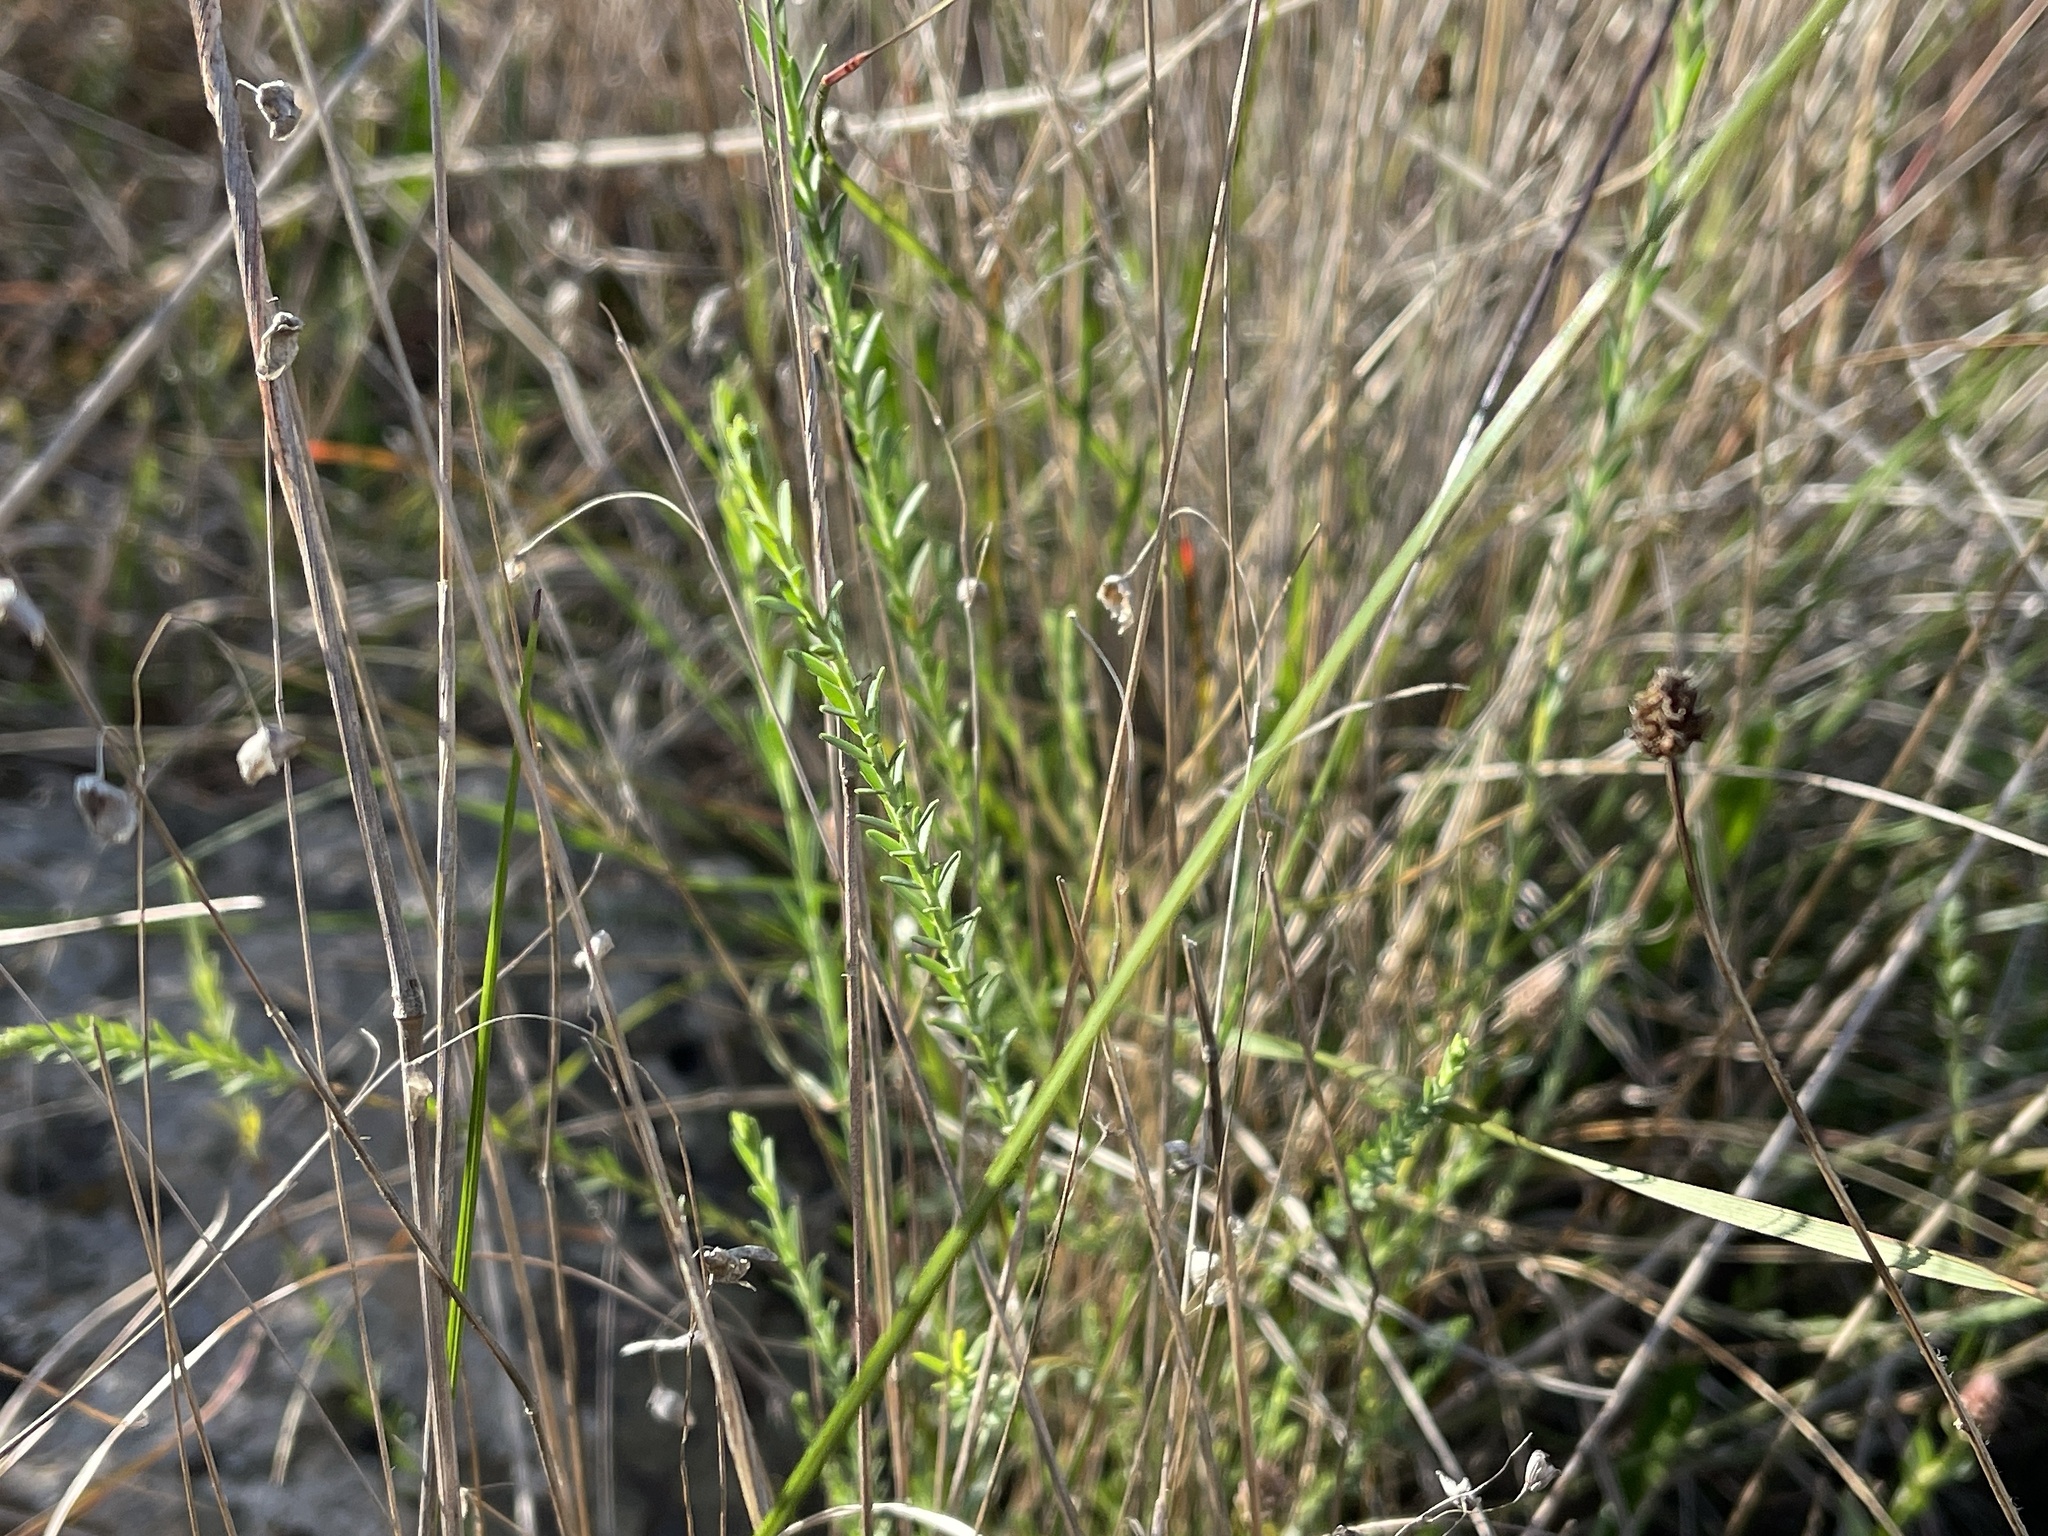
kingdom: Plantae
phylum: Tracheophyta
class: Magnoliopsida
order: Malpighiales
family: Linaceae
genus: Linum
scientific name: Linum marginale
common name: Wild flax
